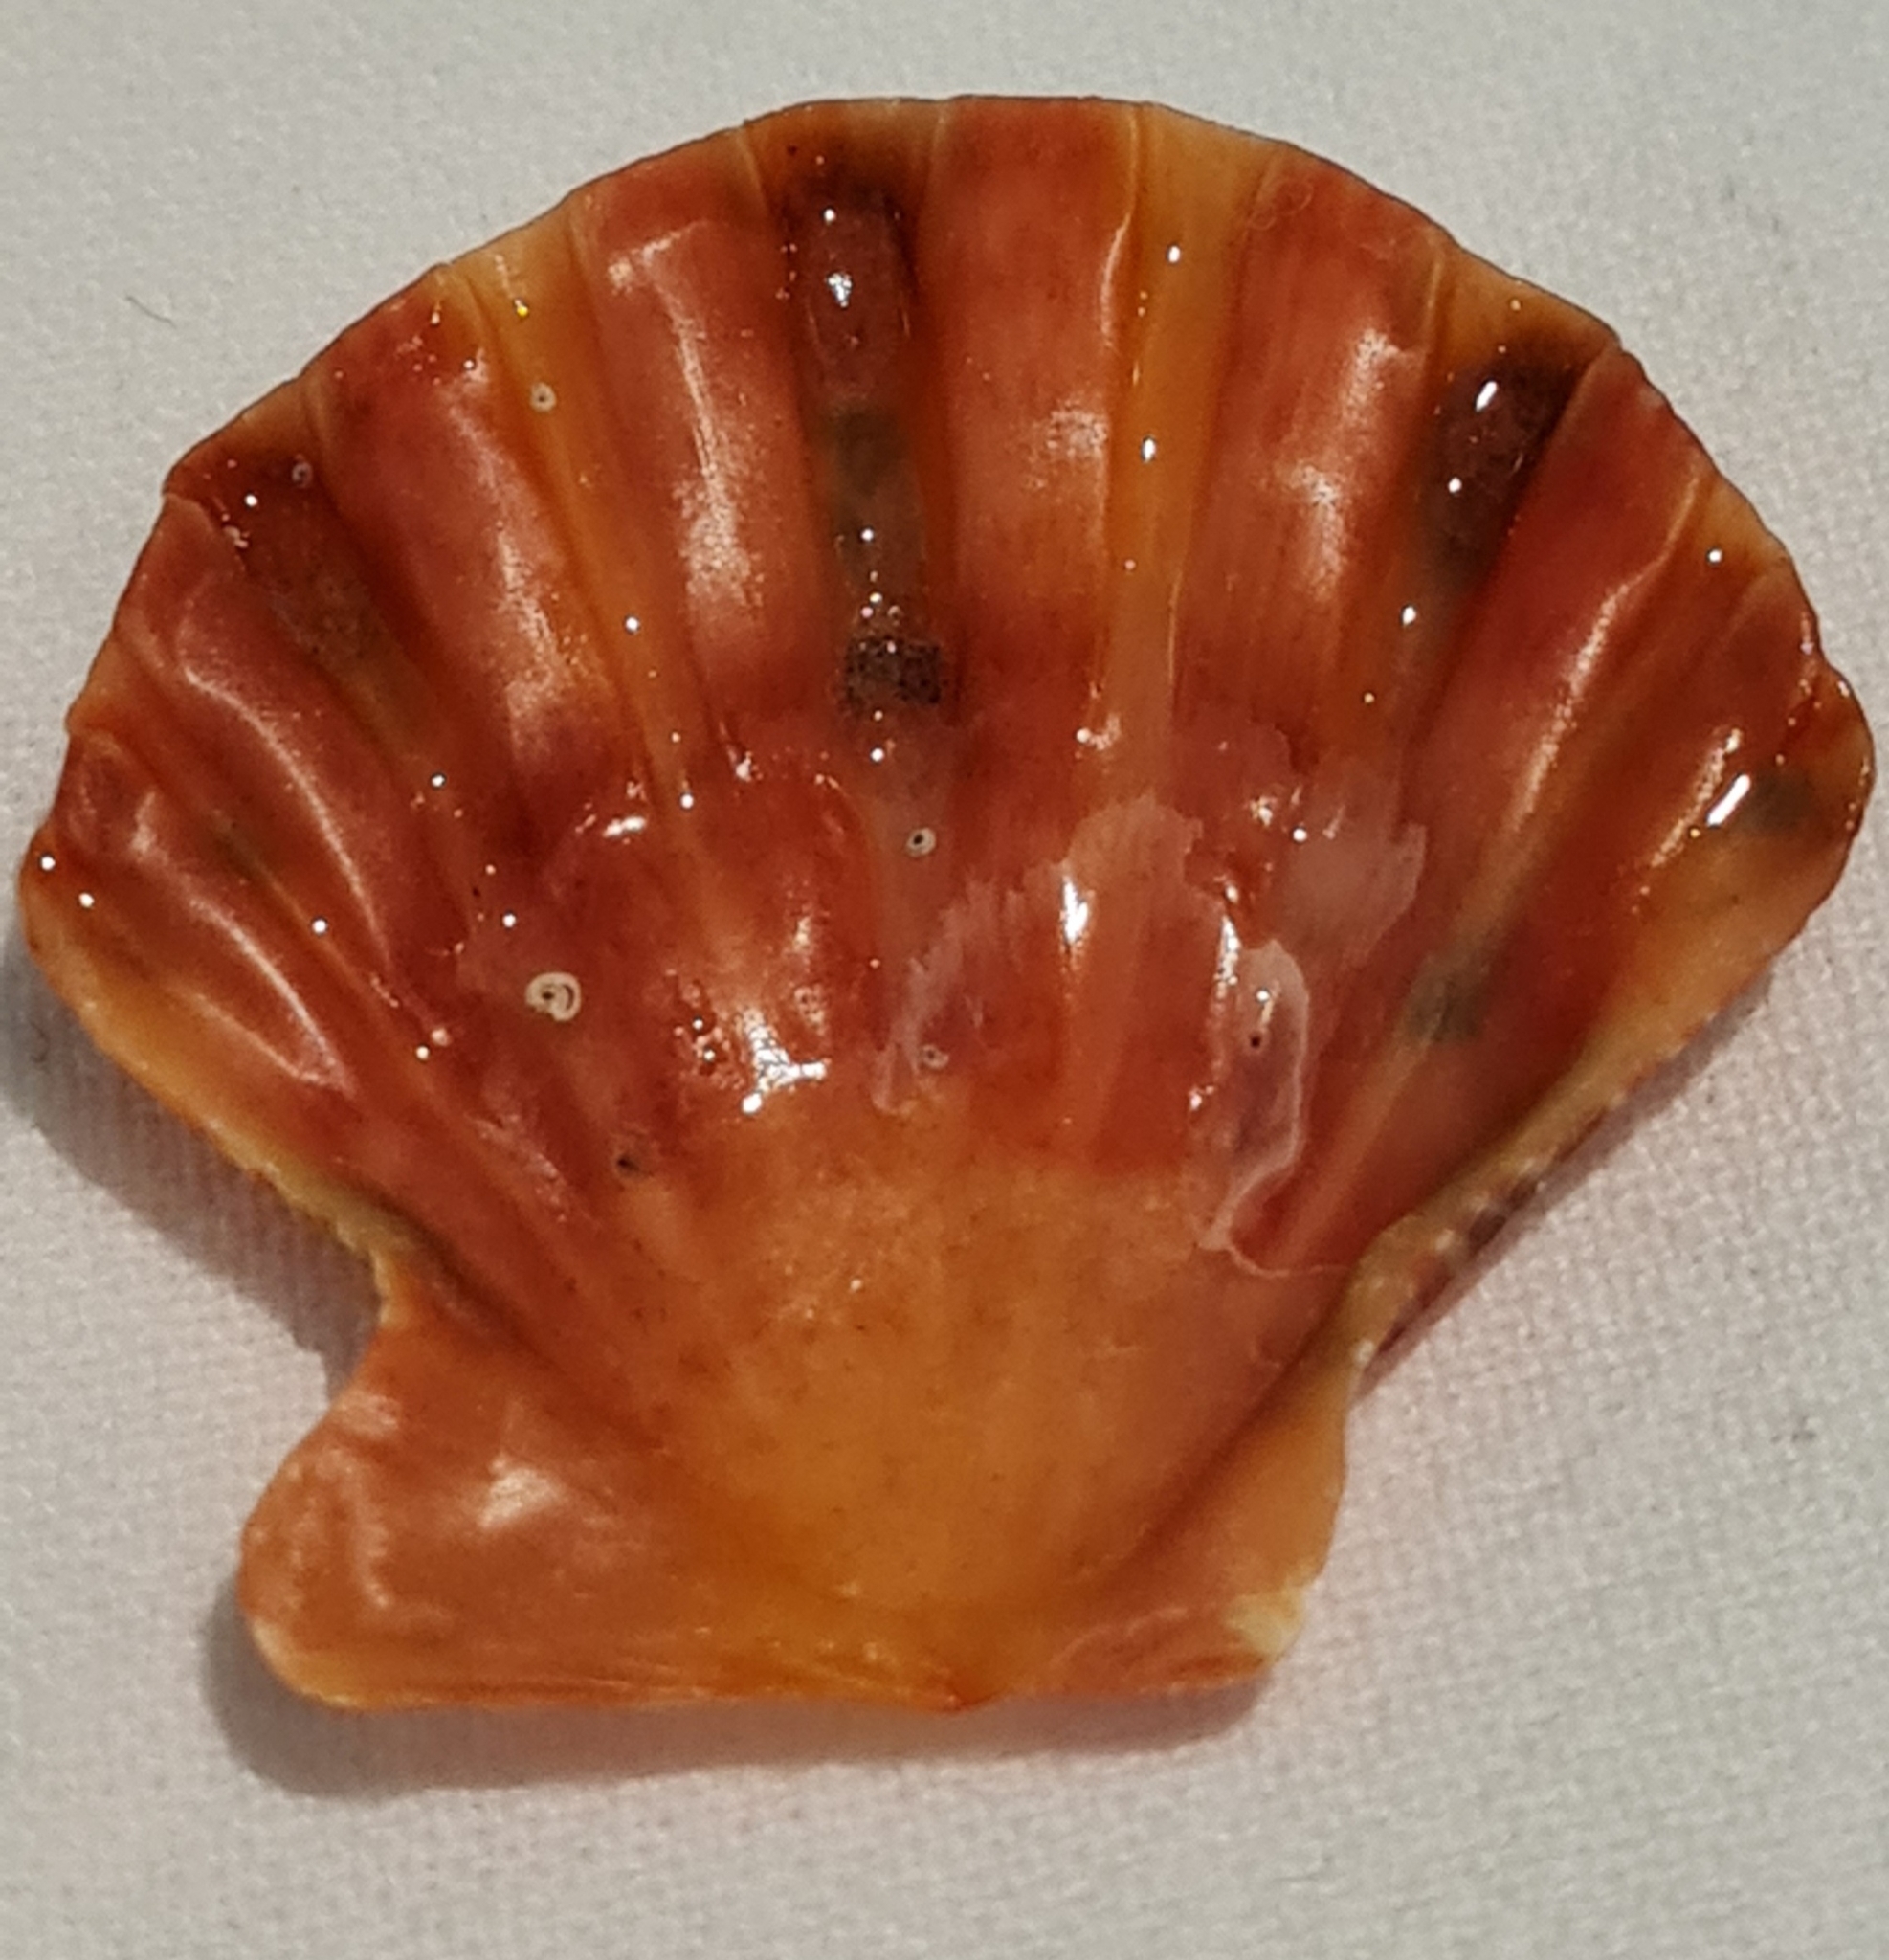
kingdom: Animalia
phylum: Mollusca
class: Bivalvia
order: Pectinida
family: Pectinidae
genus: Nodipecten
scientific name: Nodipecten nodosus
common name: Lion's paw
